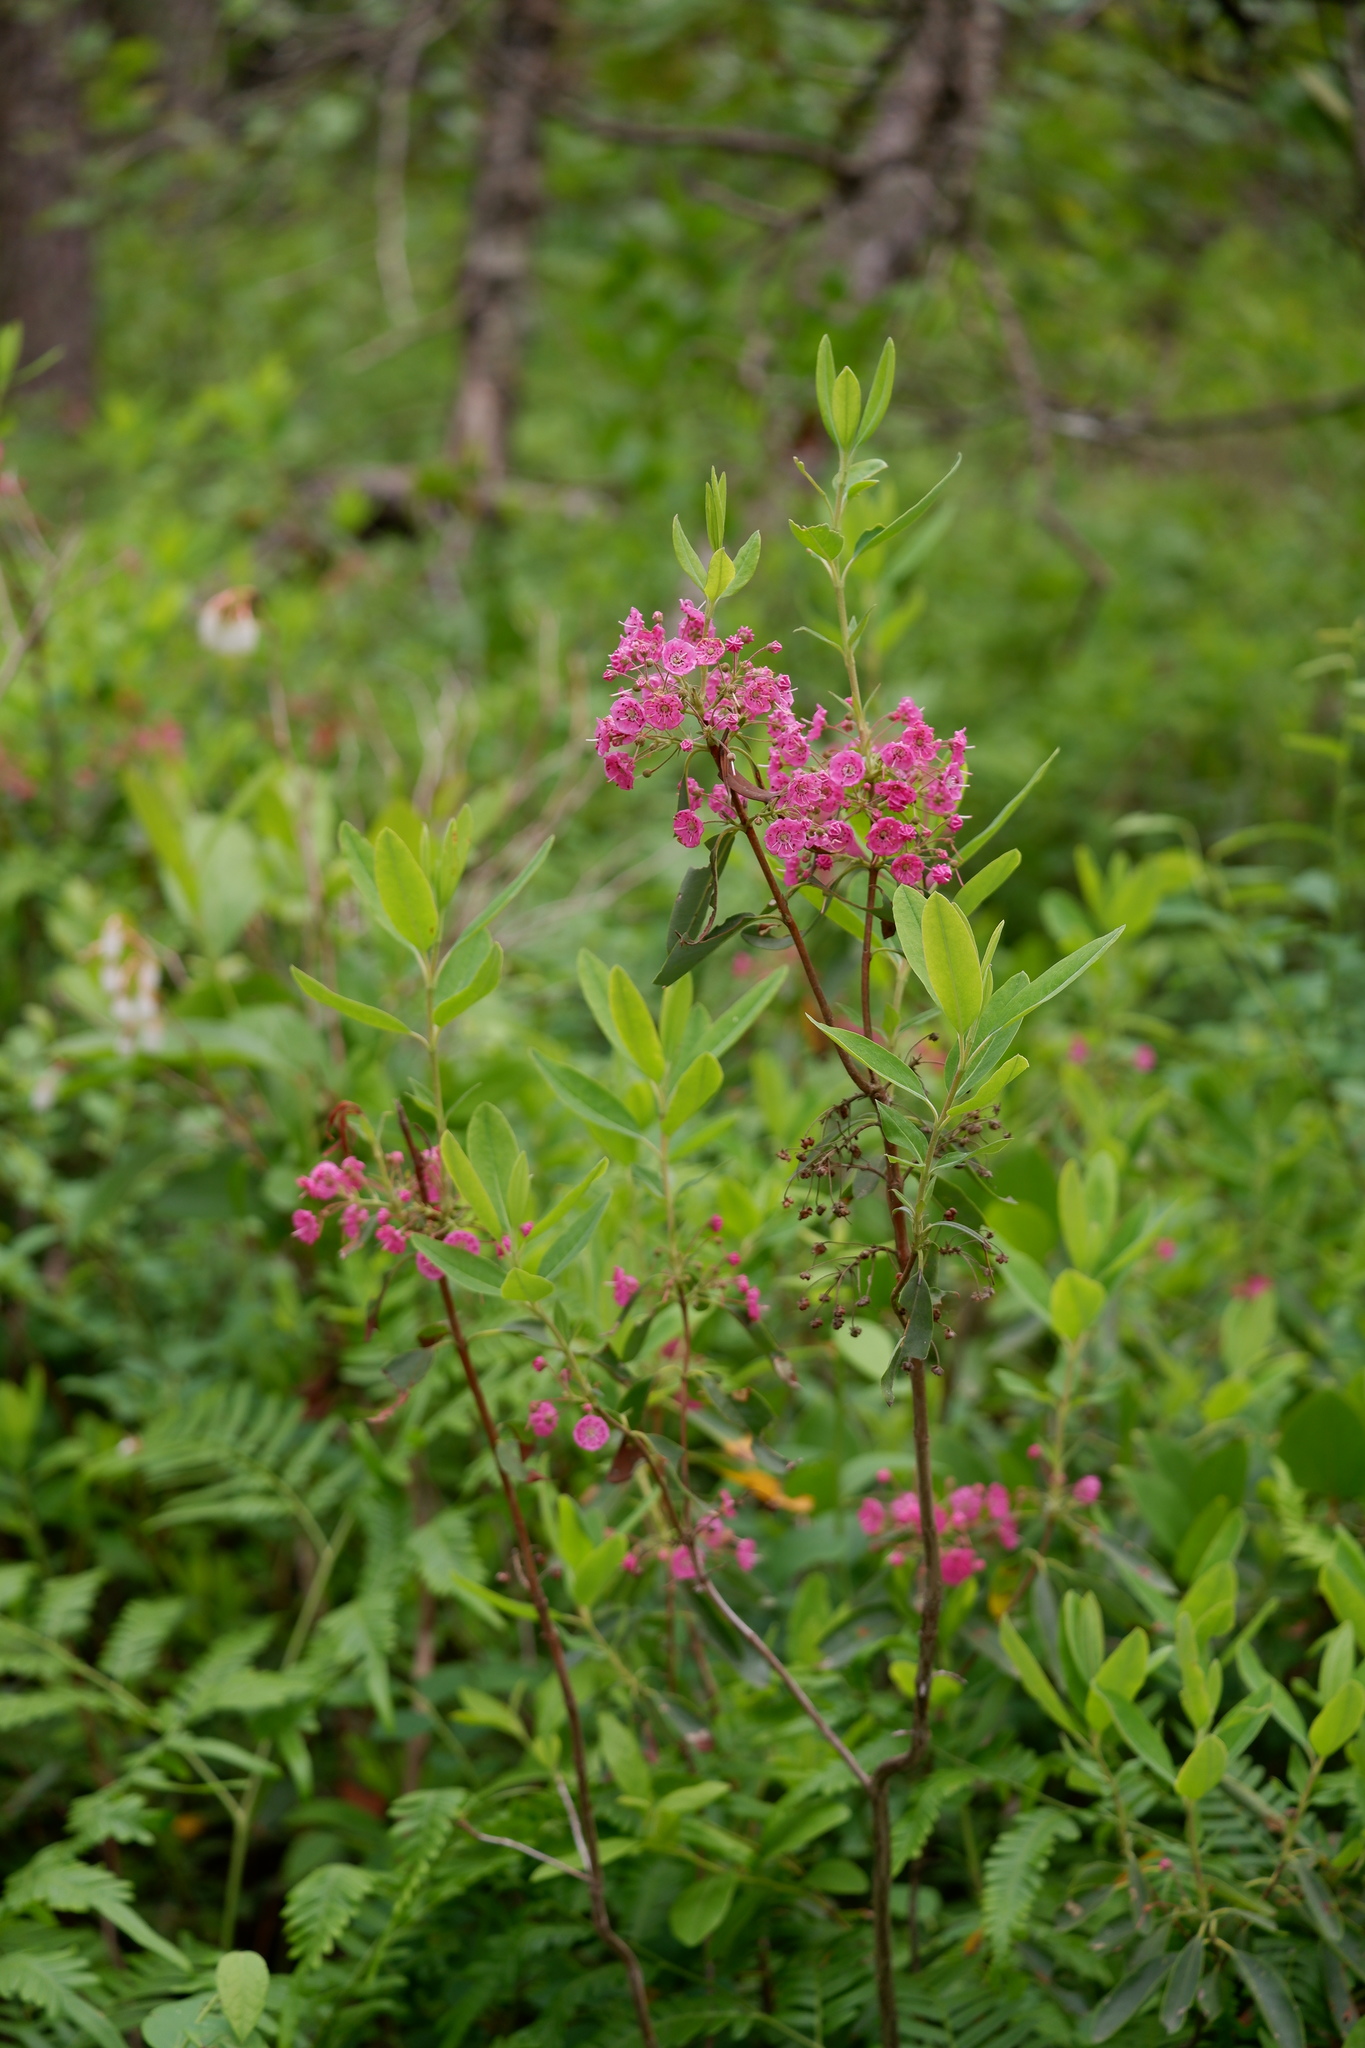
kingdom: Plantae
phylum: Tracheophyta
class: Magnoliopsida
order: Ericales
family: Ericaceae
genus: Kalmia
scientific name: Kalmia angustifolia
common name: Sheep-laurel
